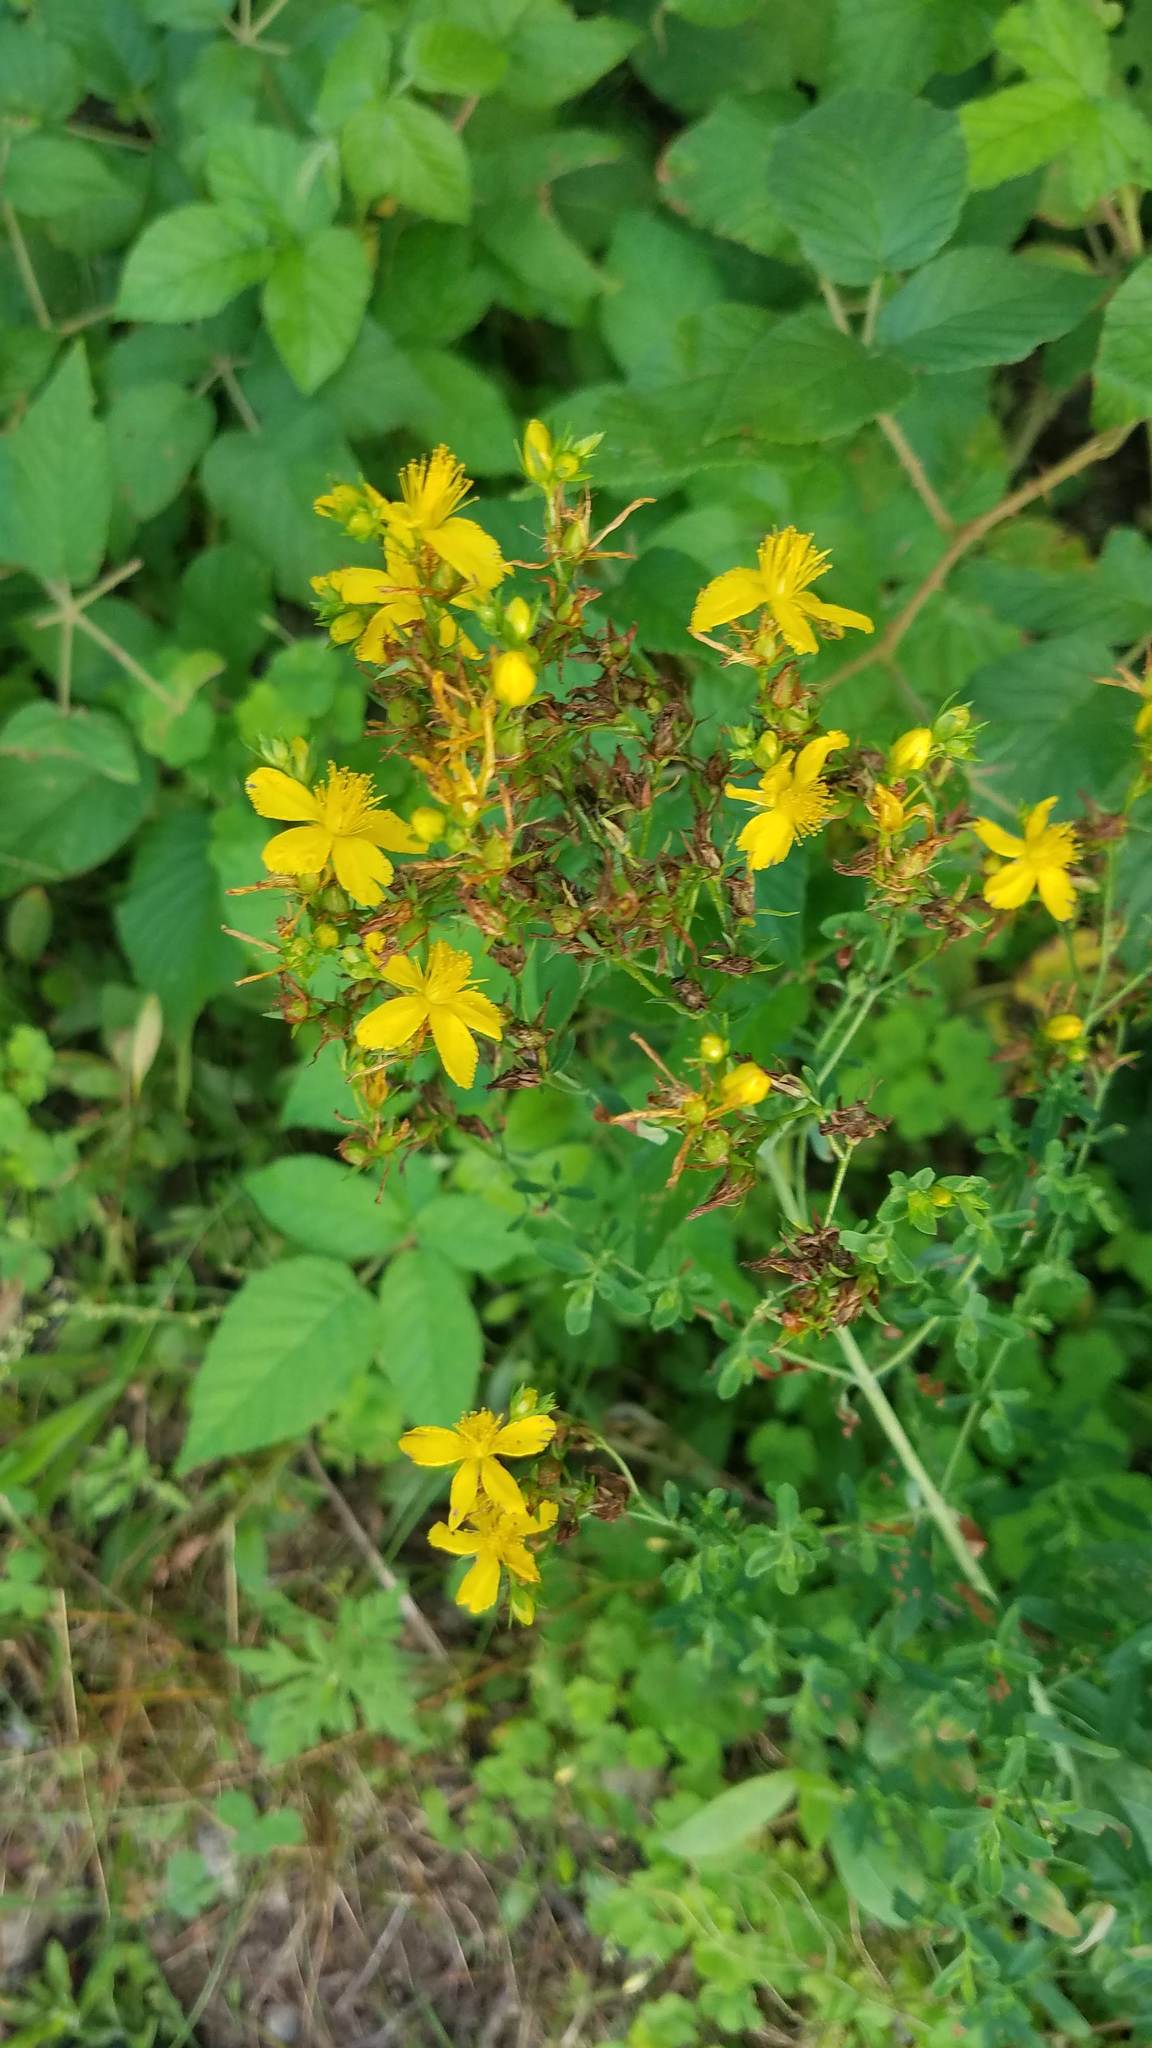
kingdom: Plantae
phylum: Tracheophyta
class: Magnoliopsida
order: Malpighiales
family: Hypericaceae
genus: Hypericum
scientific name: Hypericum perforatum
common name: Common st. johnswort
